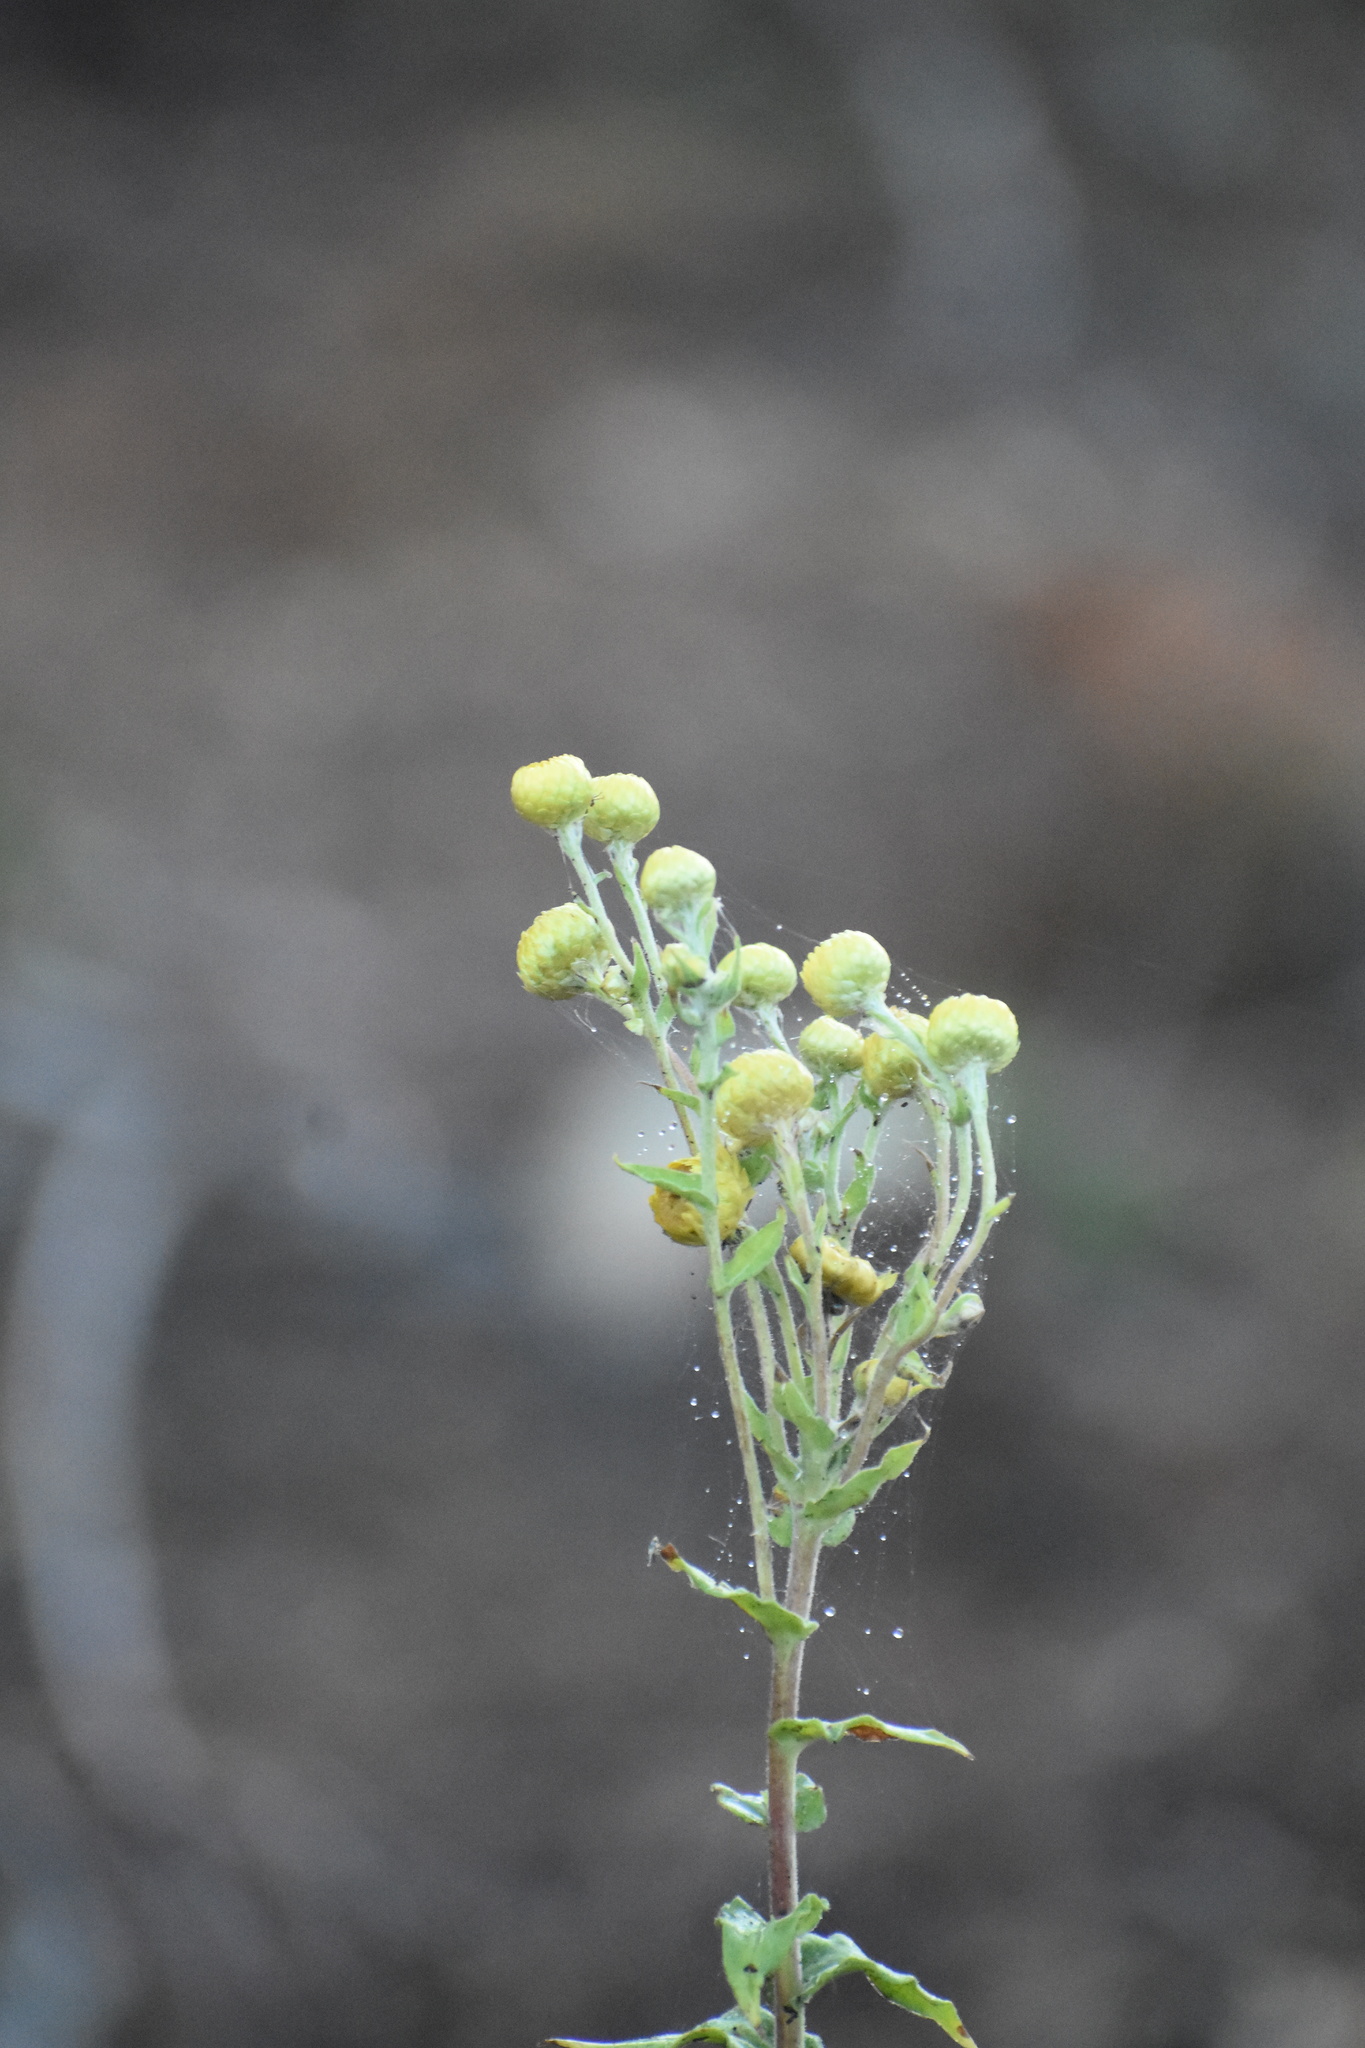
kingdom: Plantae
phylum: Tracheophyta
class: Magnoliopsida
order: Asterales
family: Asteraceae
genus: Helichrysum
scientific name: Helichrysum foetidum
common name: Stinking everlasting
